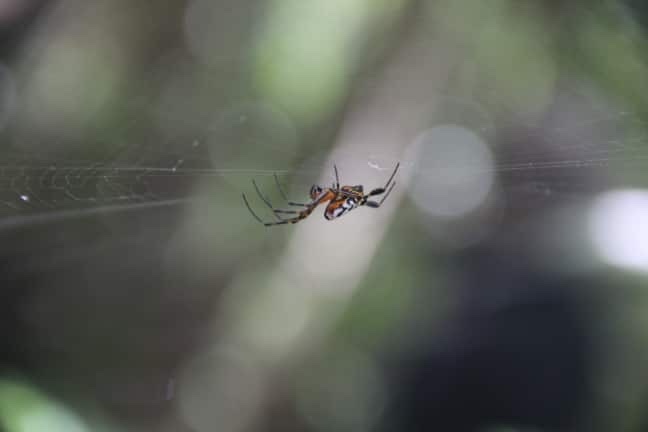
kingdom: Animalia
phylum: Arthropoda
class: Arachnida
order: Araneae
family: Tetragnathidae
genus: Leucauge
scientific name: Leucauge fastigata
